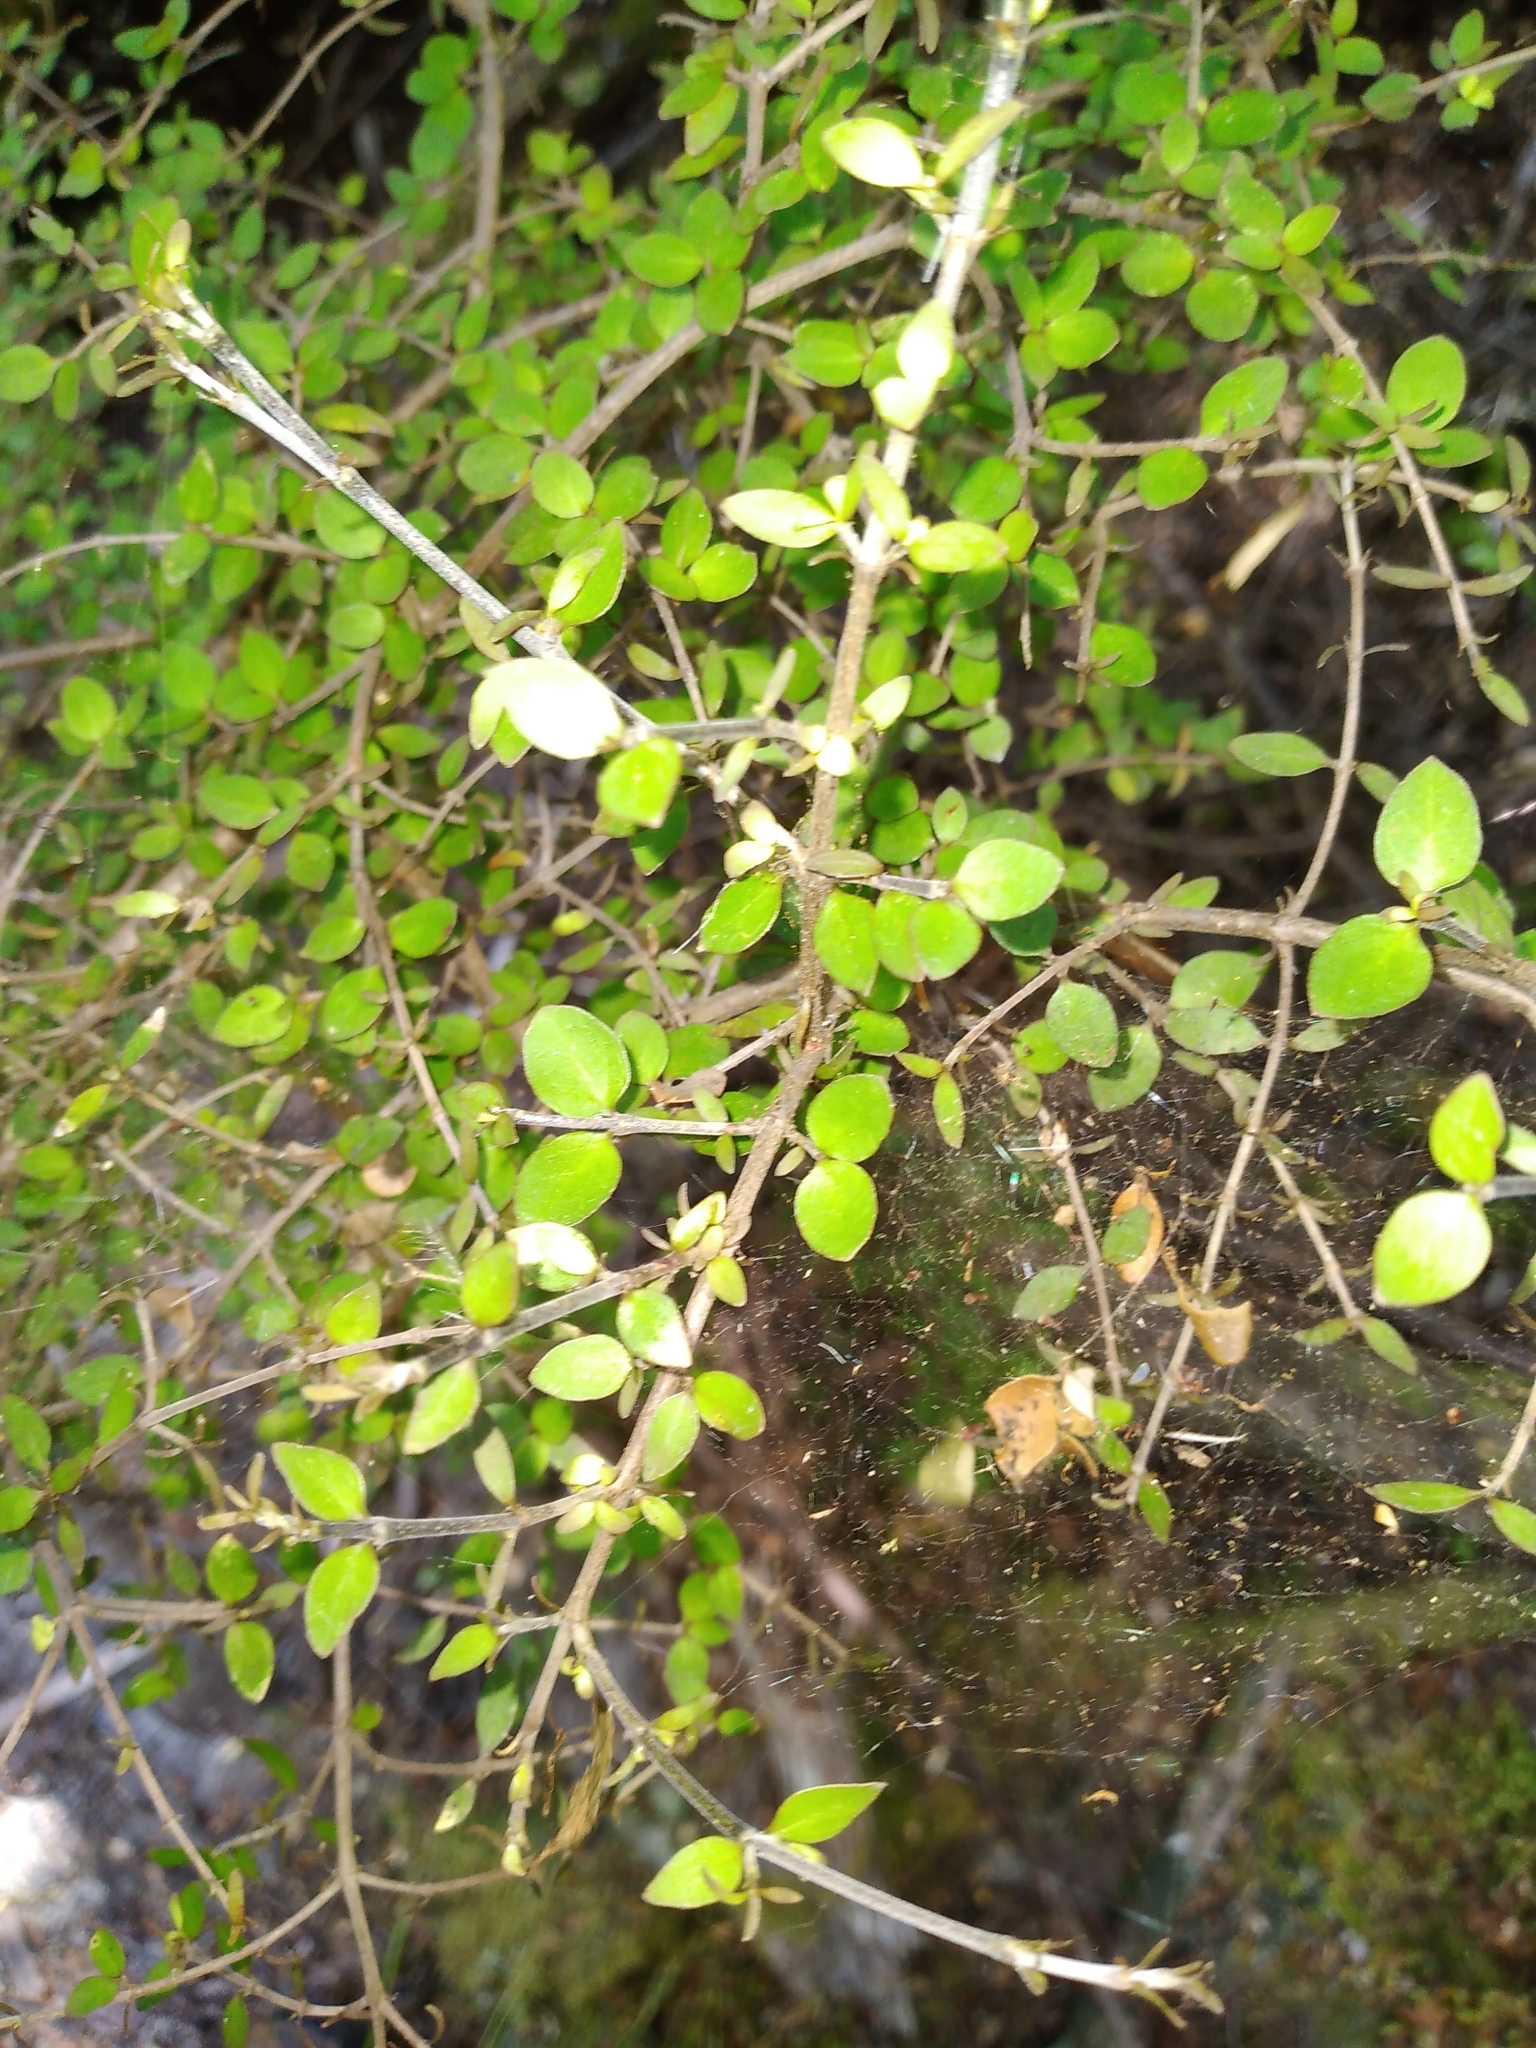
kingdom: Plantae
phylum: Tracheophyta
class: Magnoliopsida
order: Gentianales
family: Rubiaceae
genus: Coprosma
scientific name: Coprosma rhamnoides
